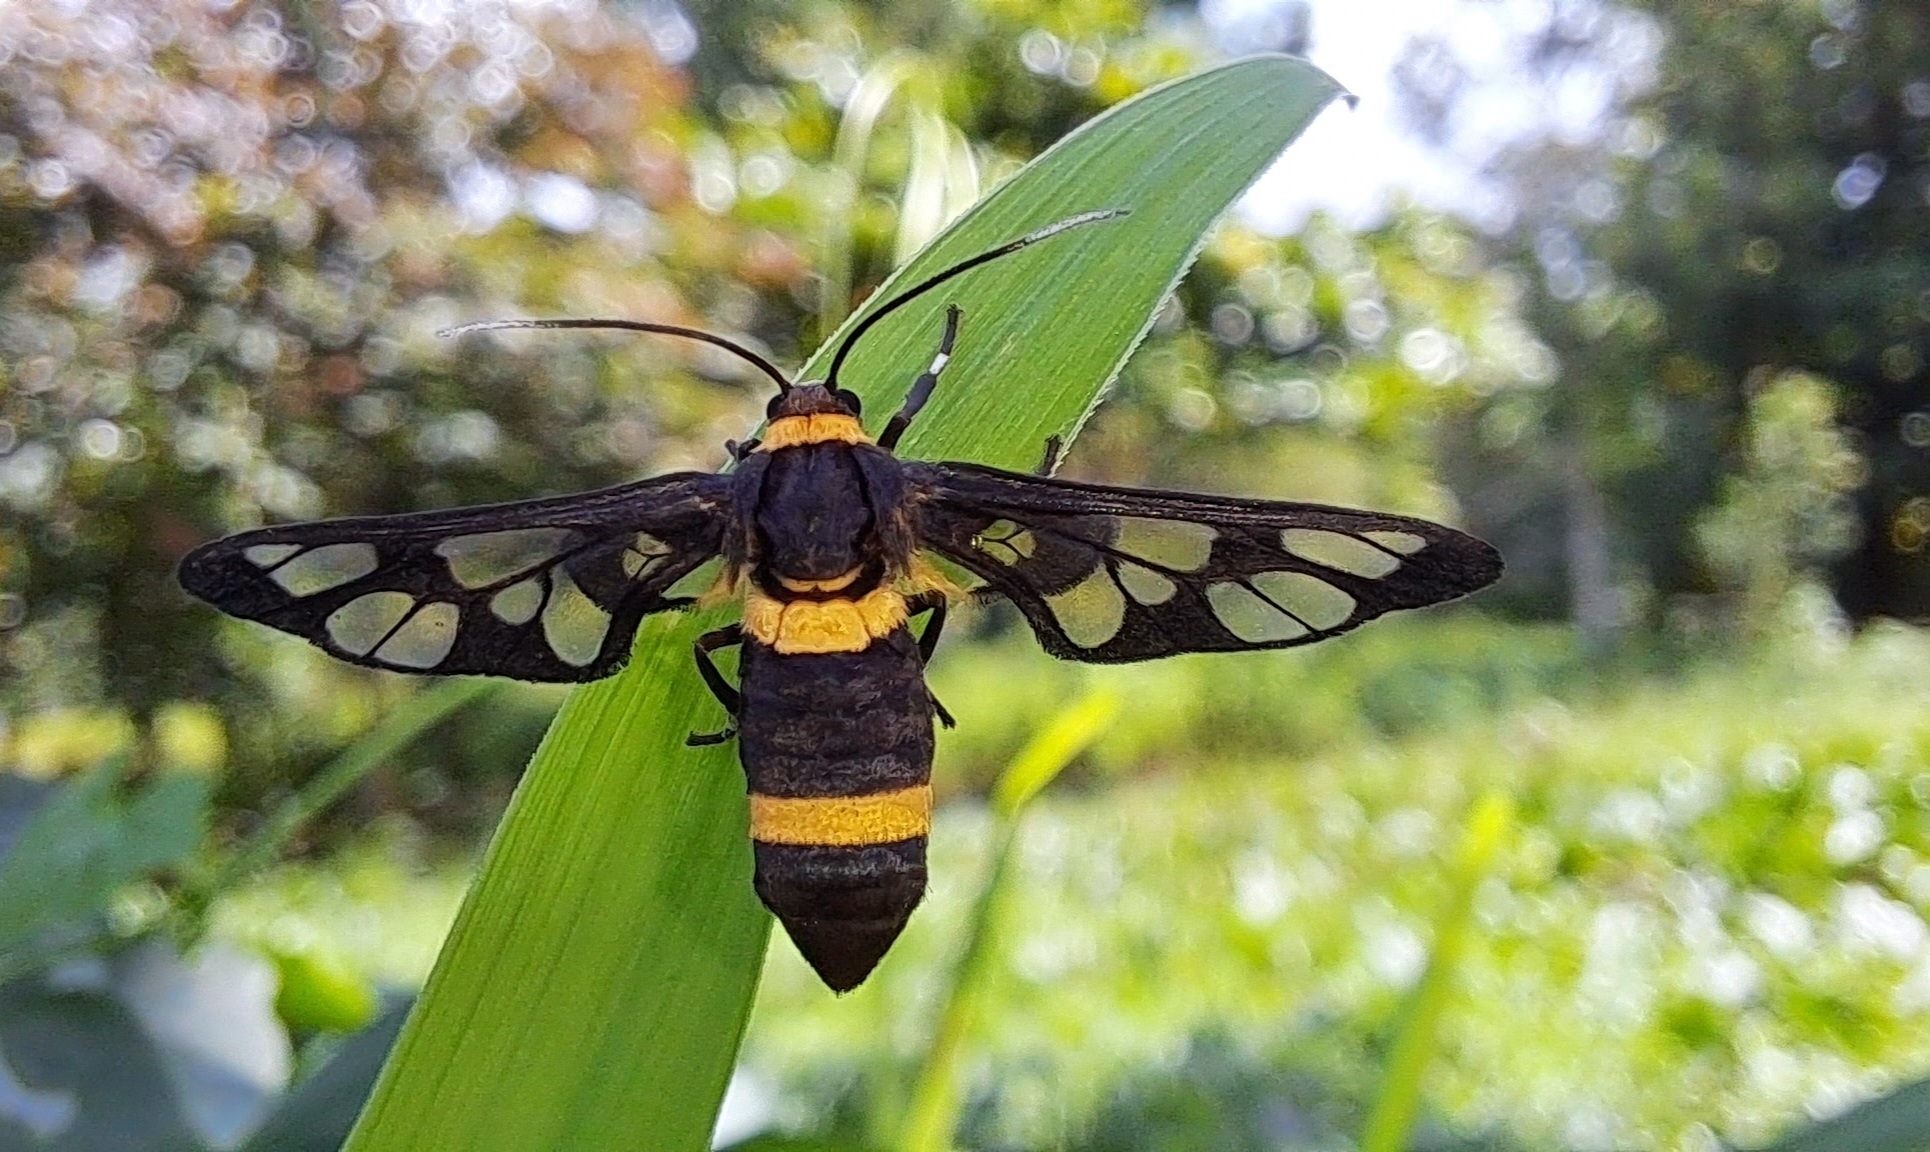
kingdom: Animalia
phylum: Arthropoda
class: Insecta
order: Lepidoptera
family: Erebidae
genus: Syntomoides
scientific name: Syntomoides imaon
